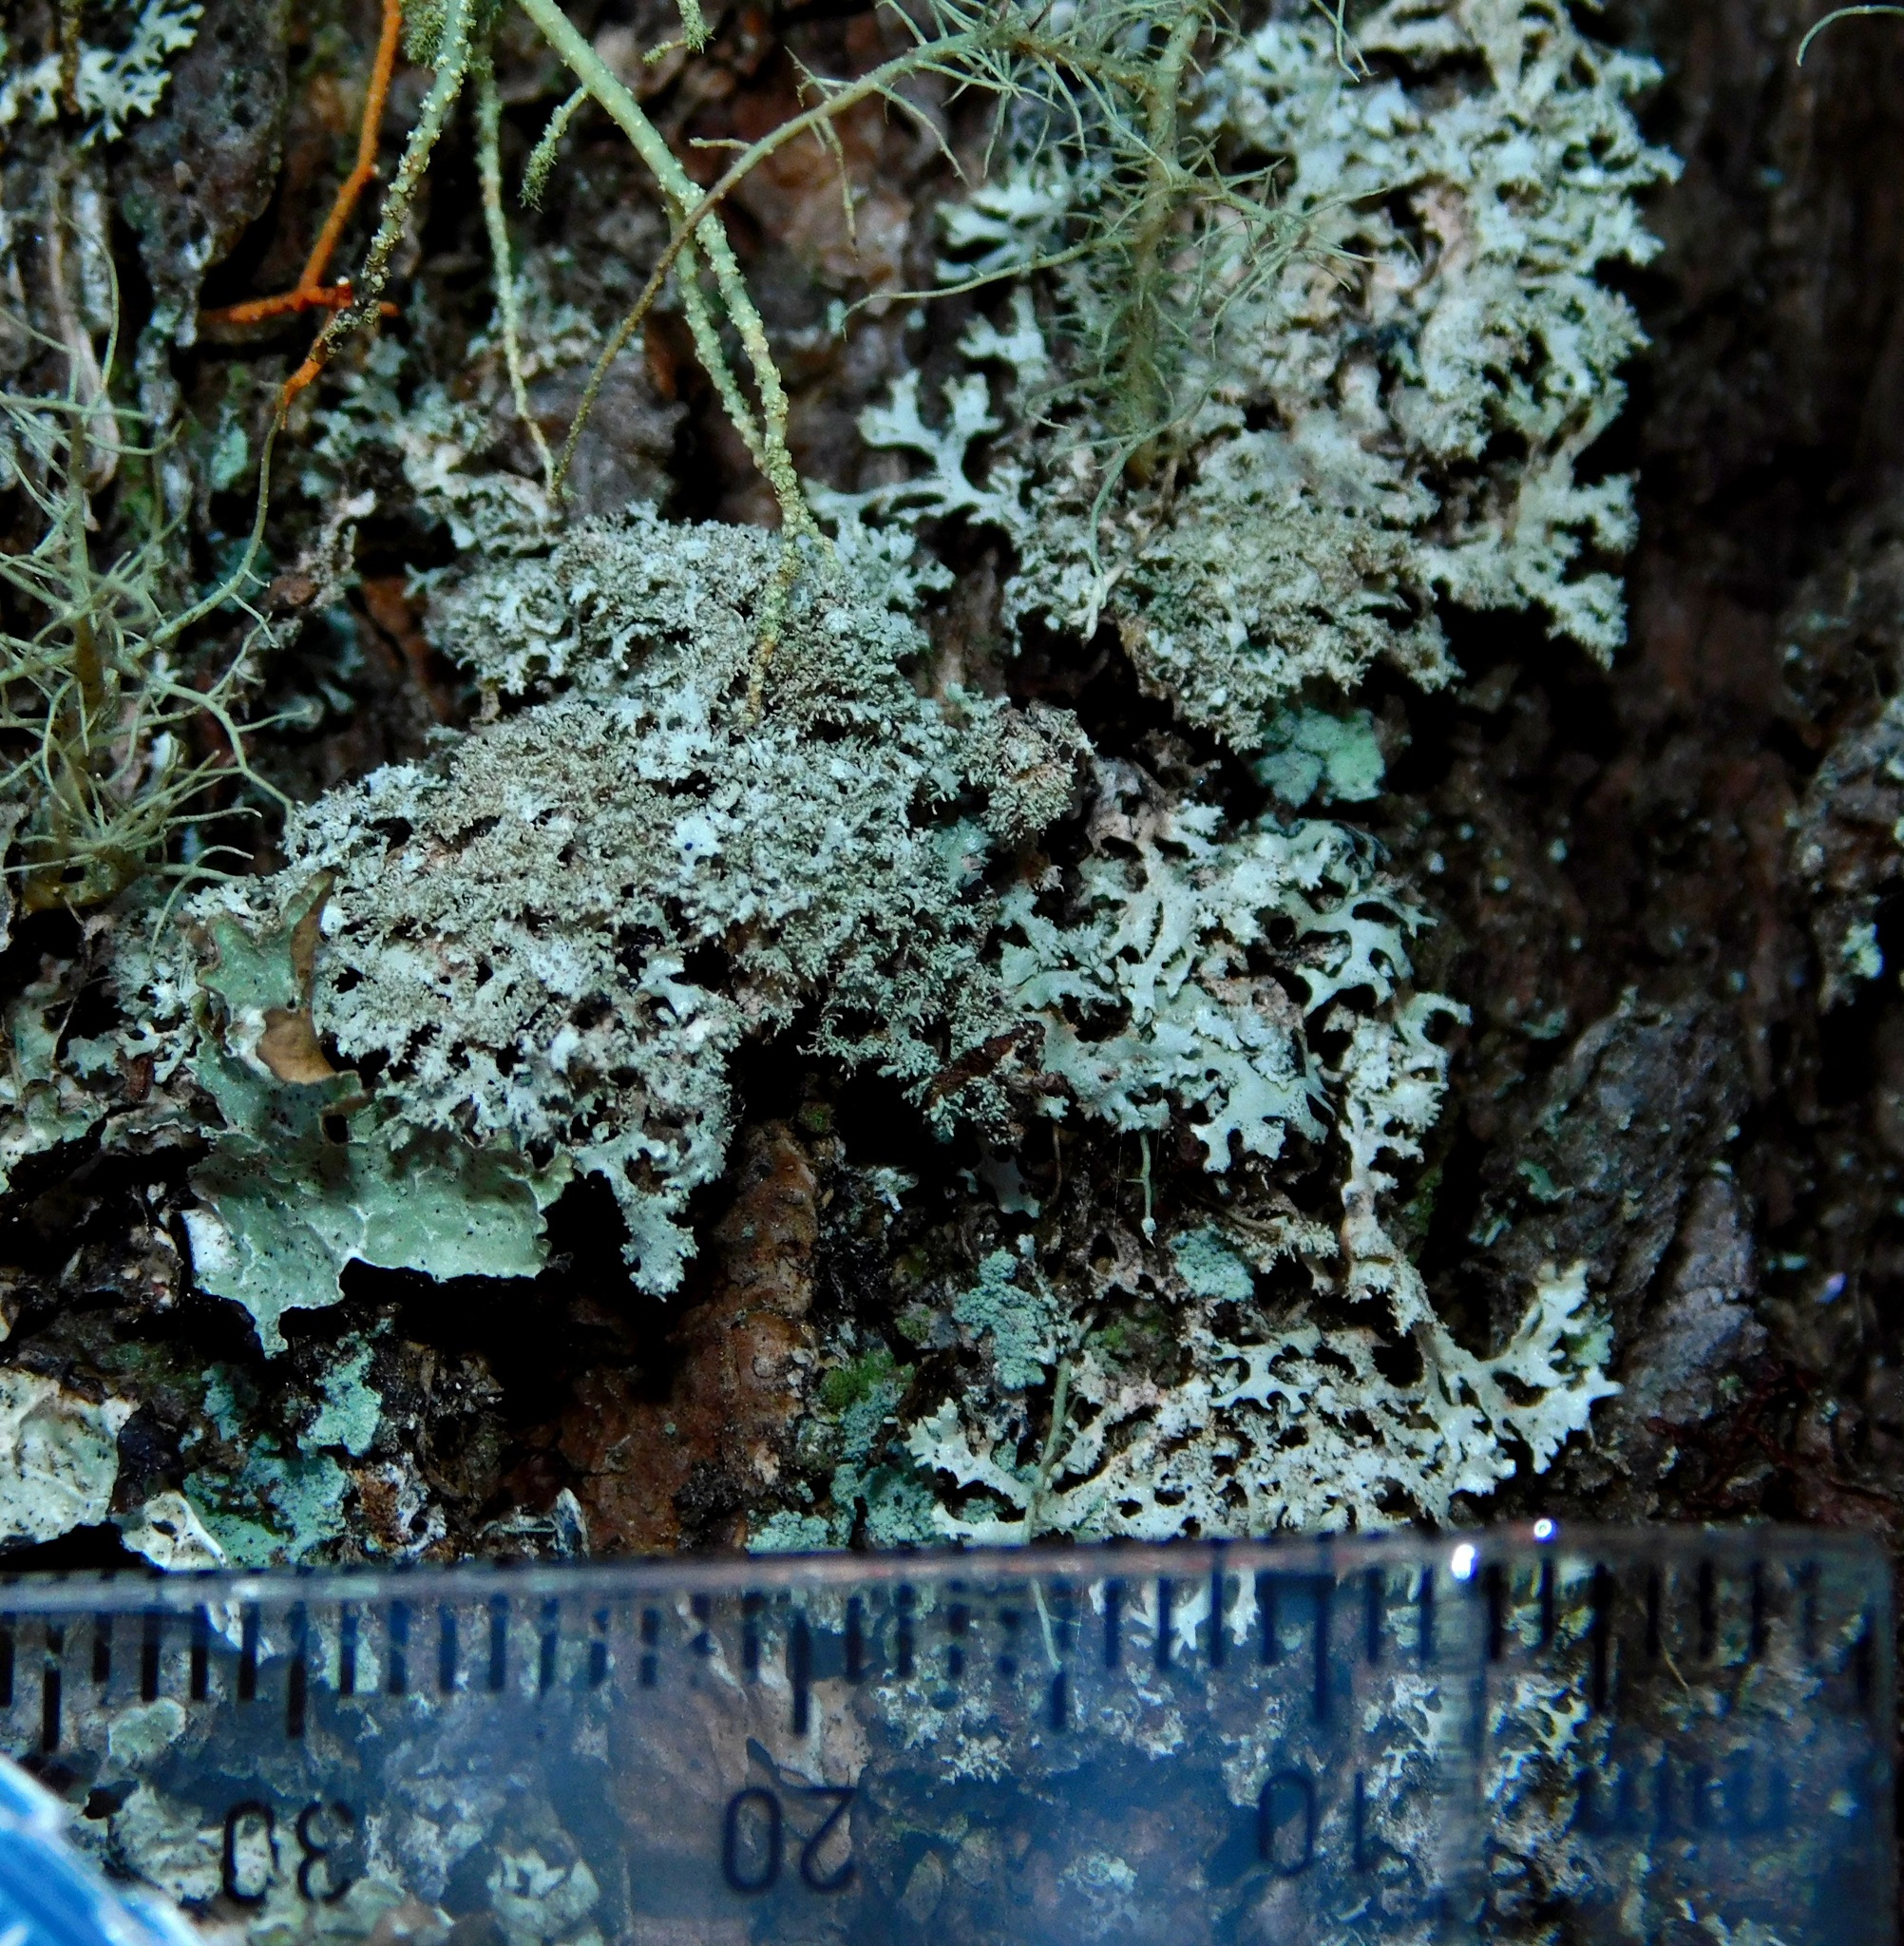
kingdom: Fungi
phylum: Ascomycota
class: Lecanoromycetes
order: Lecanorales
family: Parmeliaceae
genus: Imshaugia
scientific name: Imshaugia aleurites
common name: Salted starburst lichen
